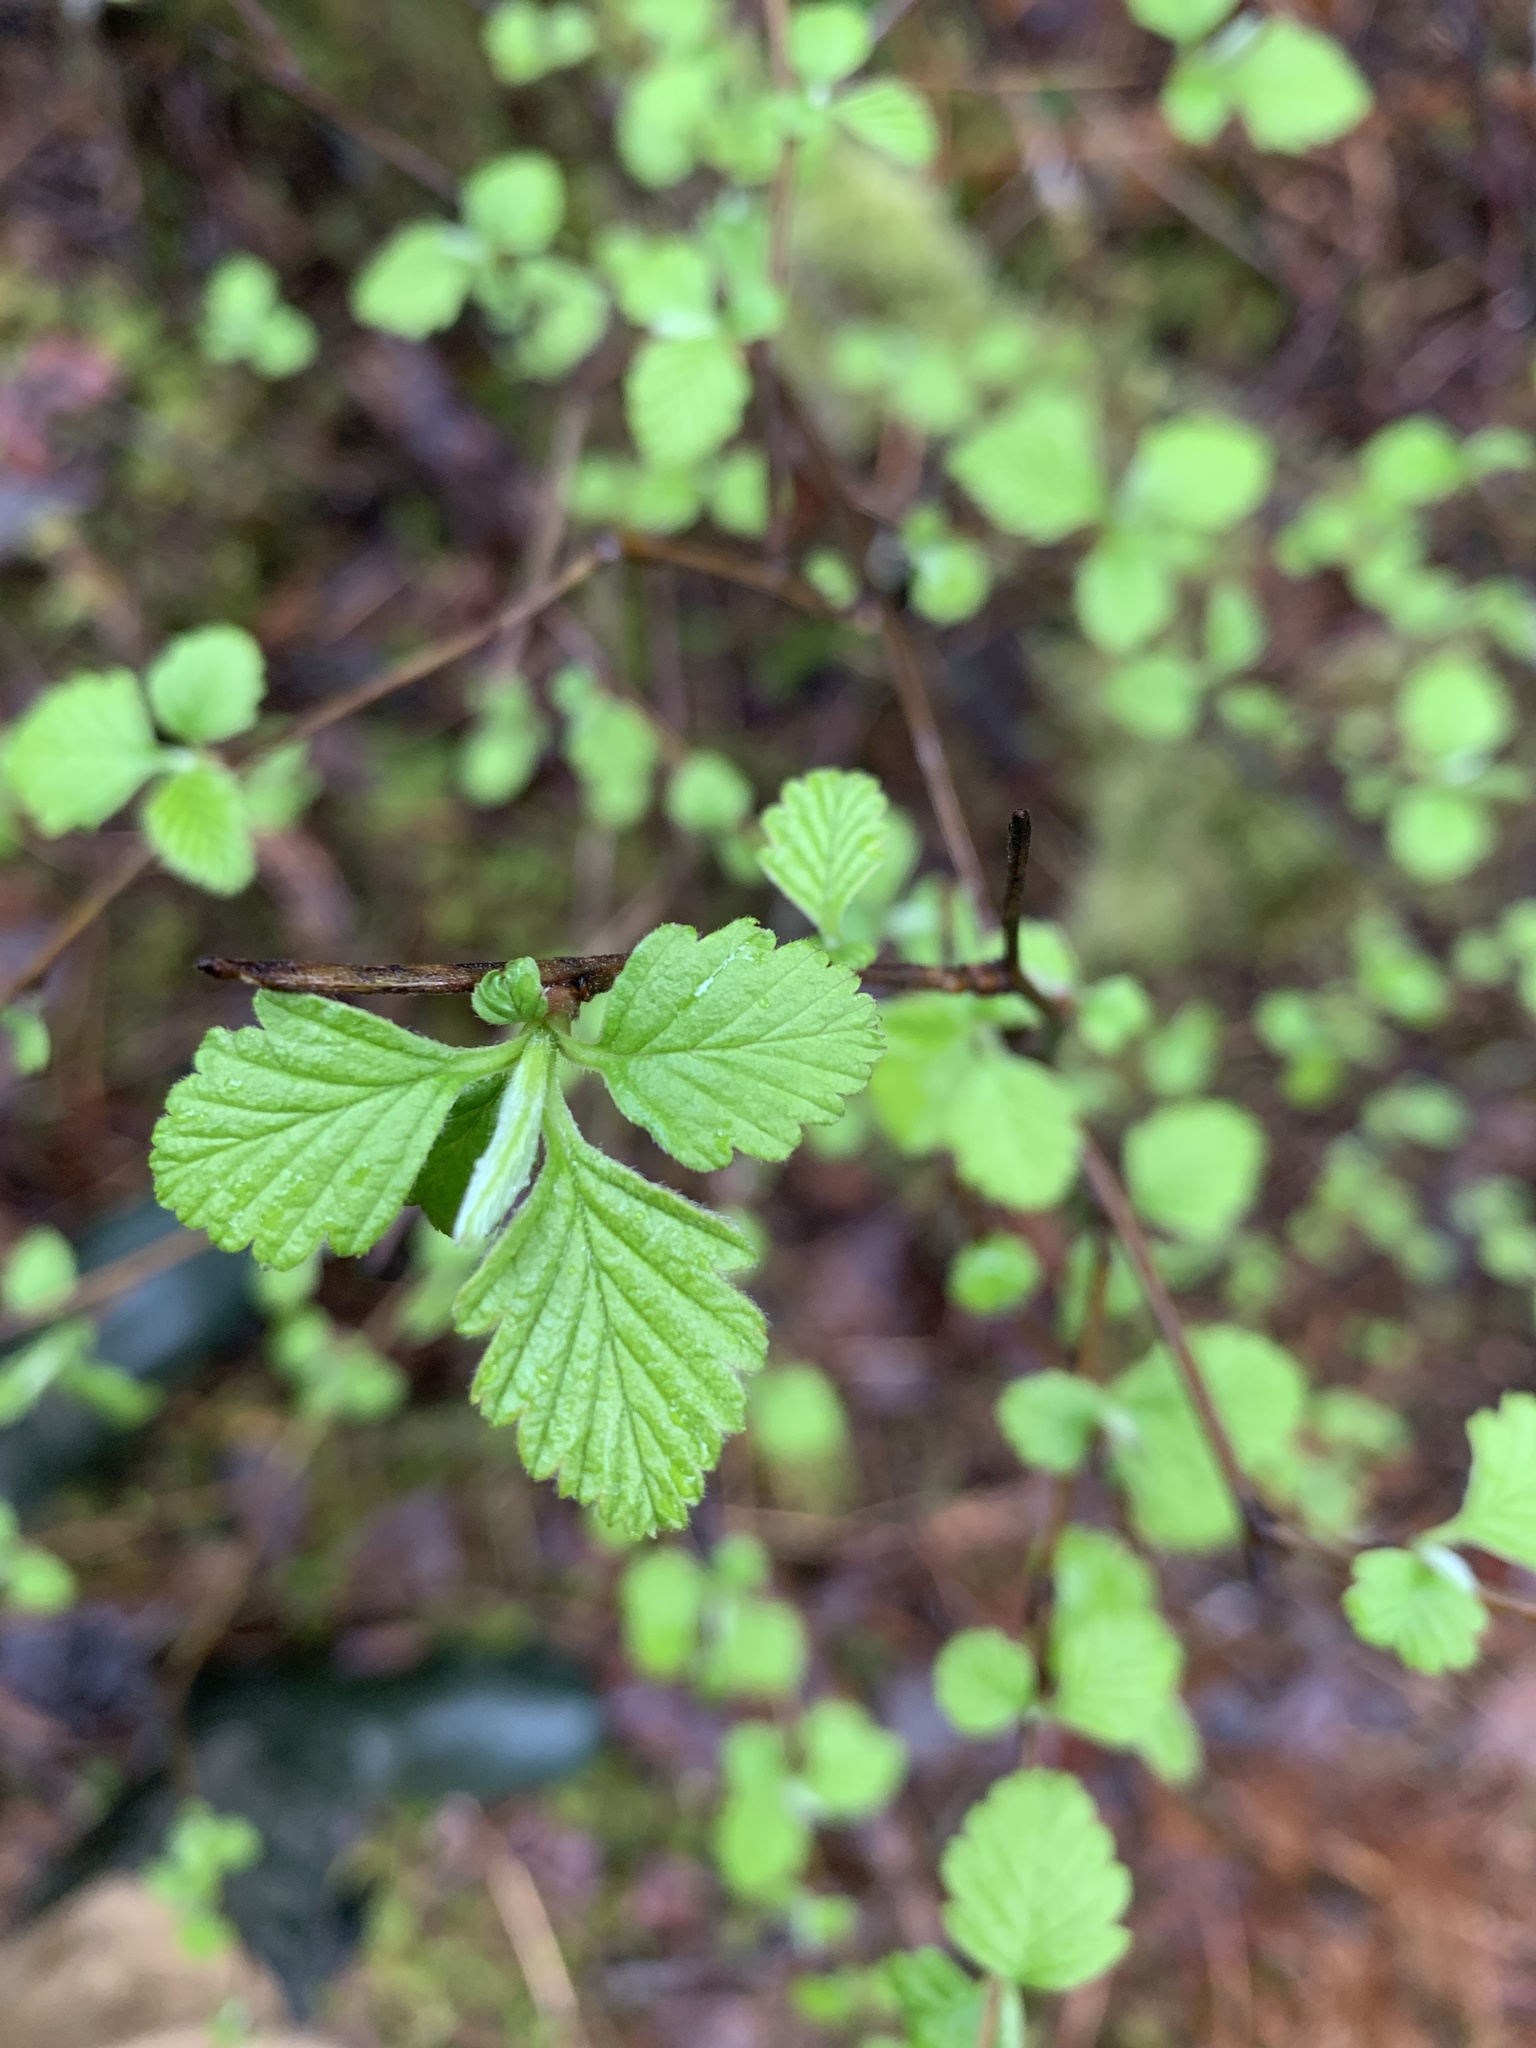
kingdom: Plantae
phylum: Tracheophyta
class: Magnoliopsida
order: Rosales
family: Rosaceae
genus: Holodiscus
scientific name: Holodiscus discolor
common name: Oceanspray
